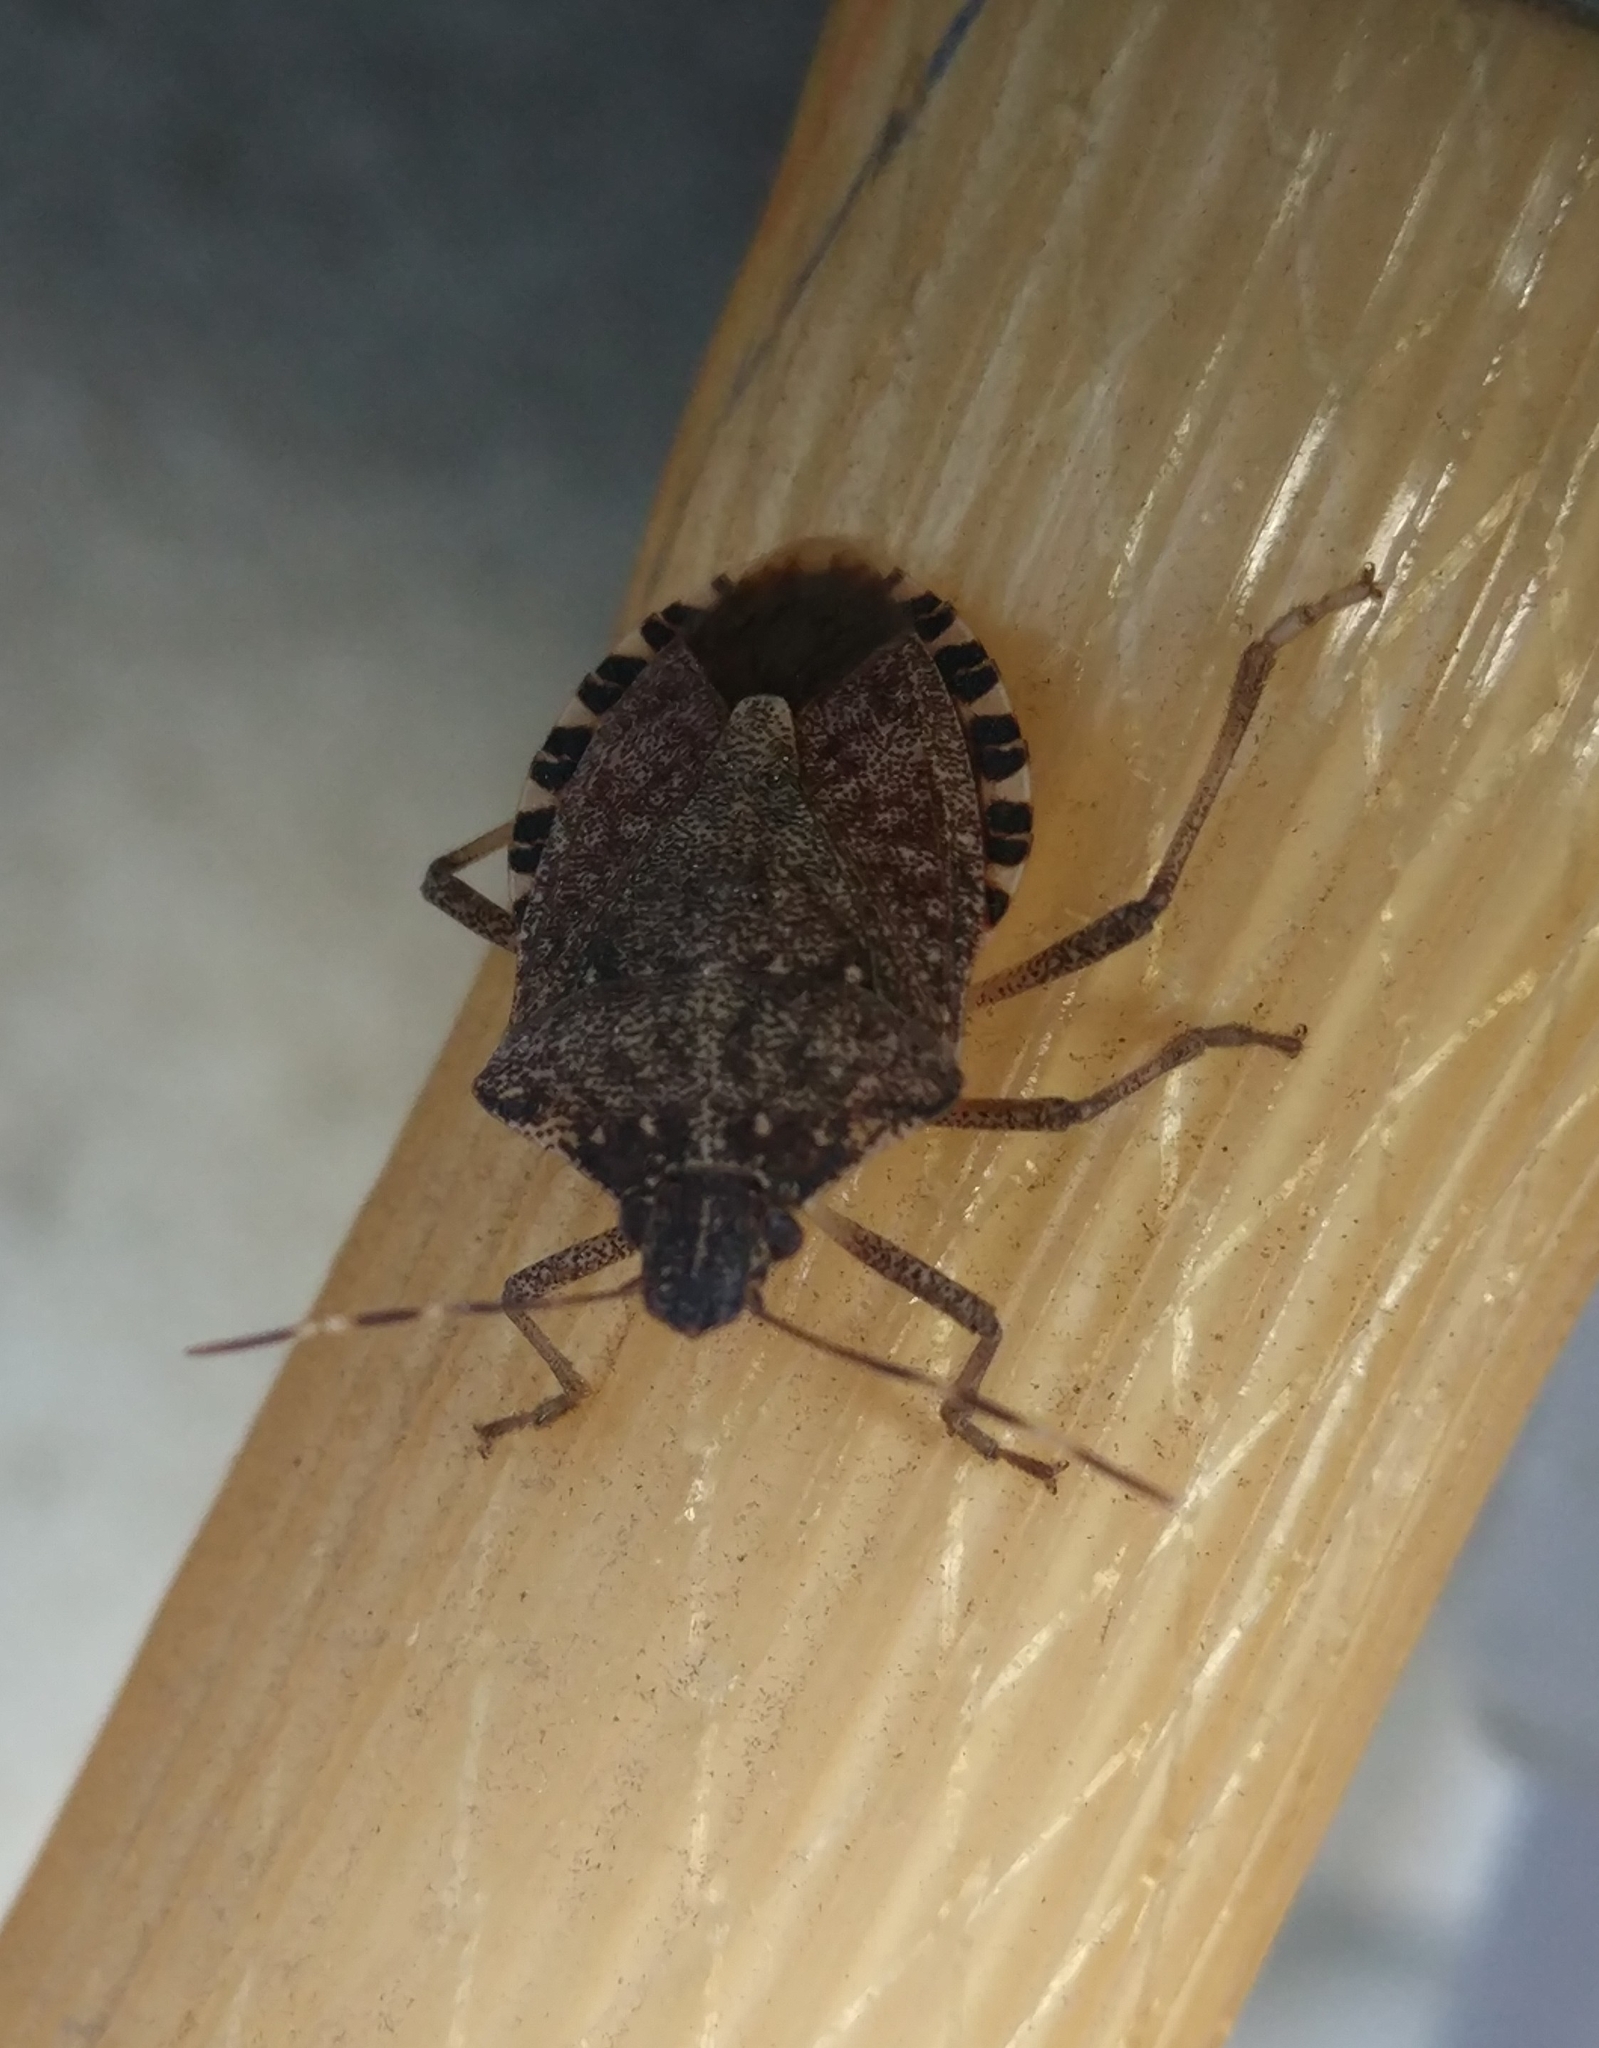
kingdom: Animalia
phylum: Arthropoda
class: Insecta
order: Hemiptera
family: Pentatomidae
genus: Halyomorpha
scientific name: Halyomorpha halys
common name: Brown marmorated stink bug
